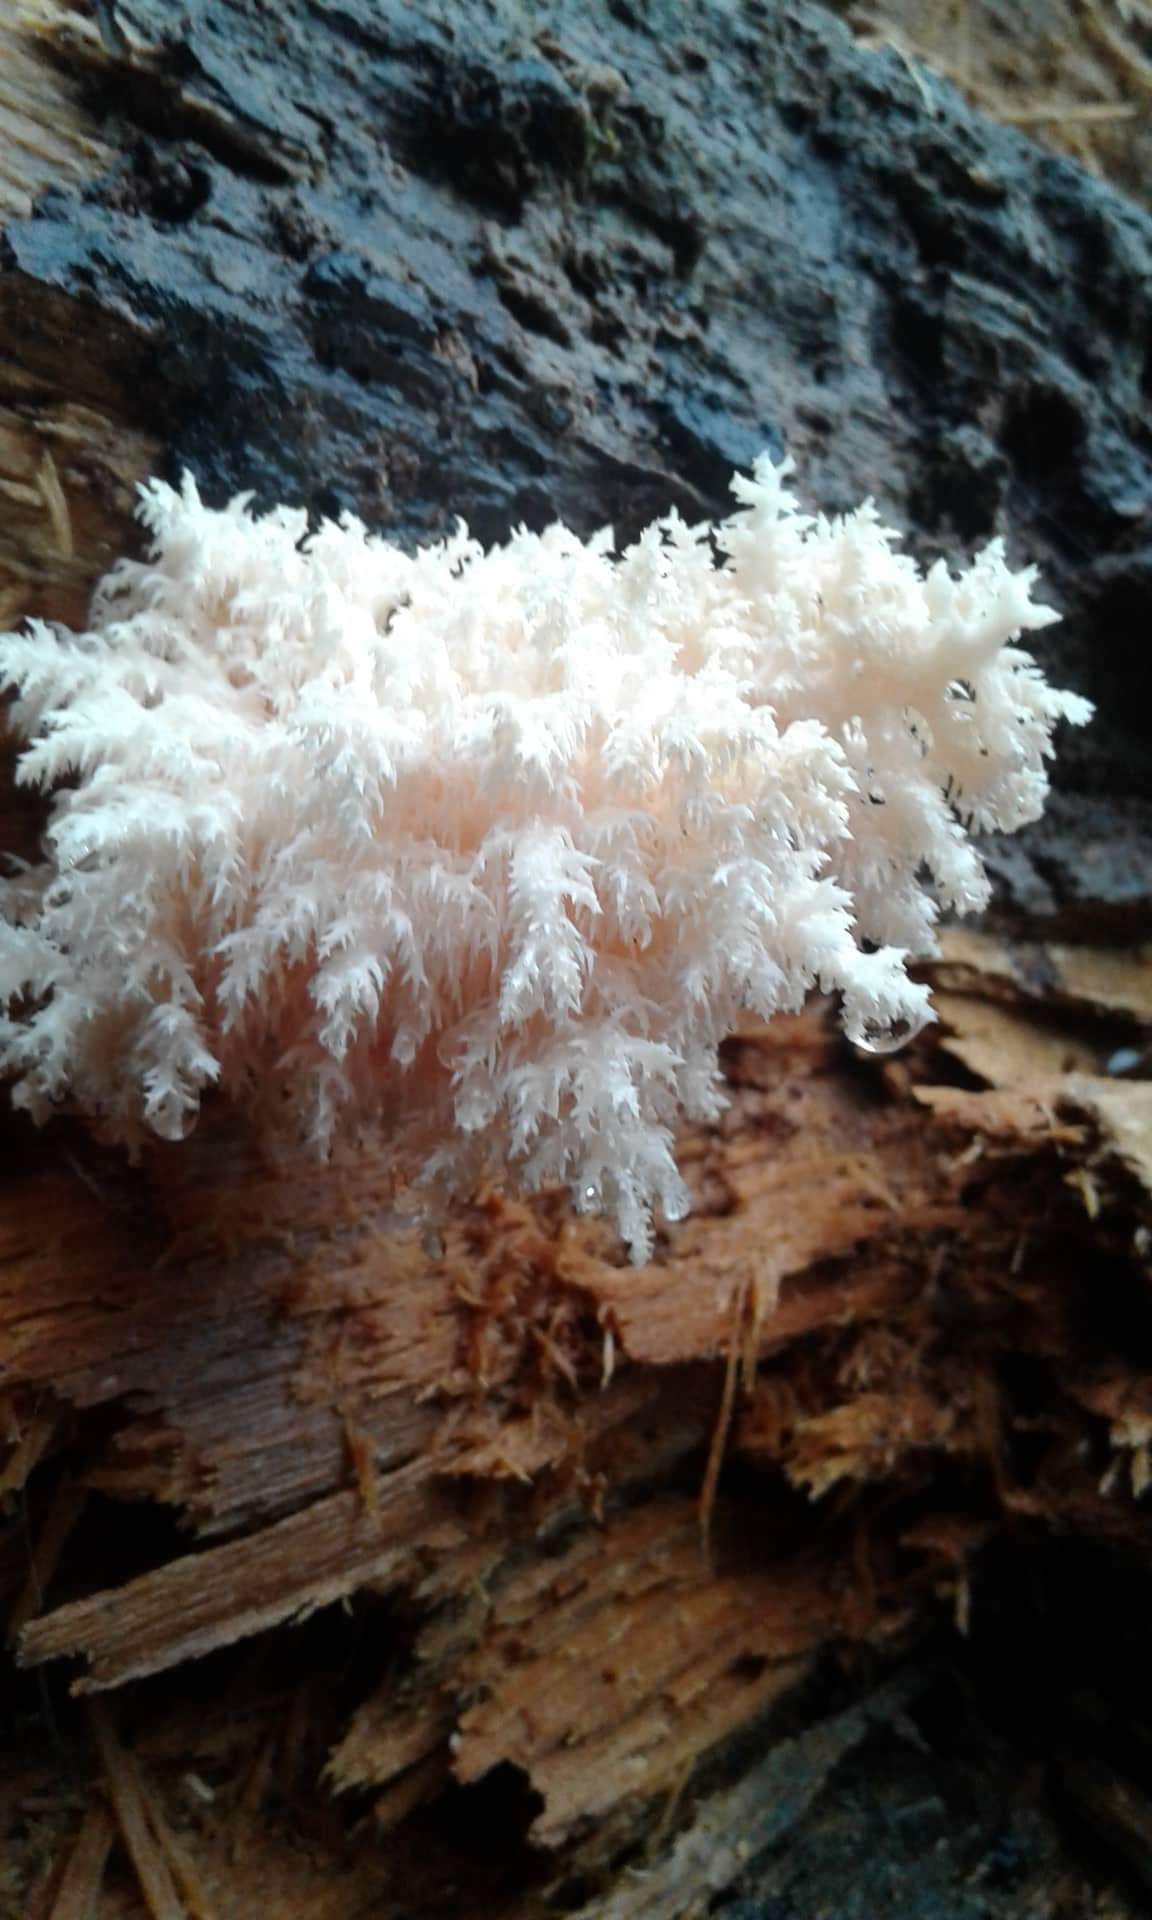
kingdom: Fungi
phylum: Basidiomycota
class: Agaricomycetes
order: Russulales
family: Hericiaceae
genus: Hericium
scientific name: Hericium novae-zealandiae
